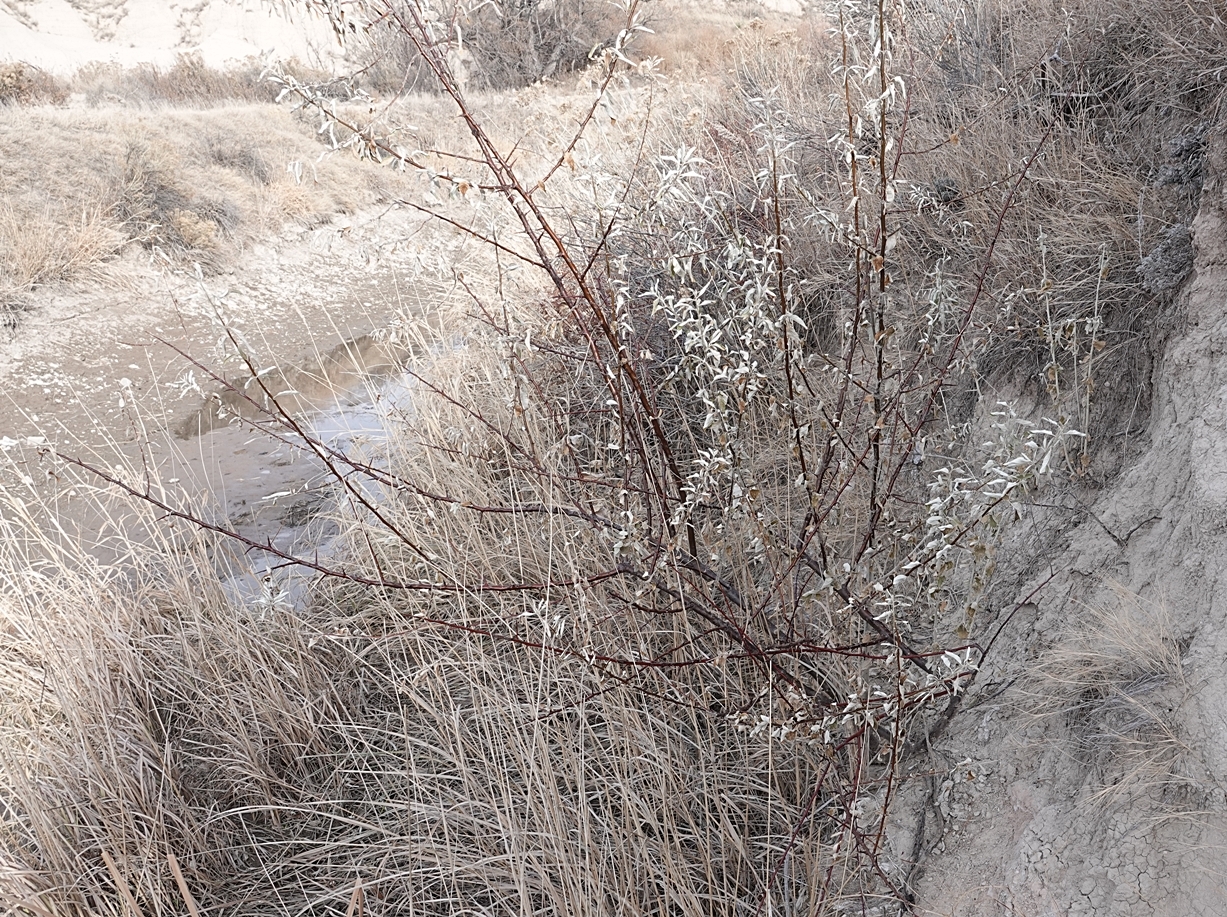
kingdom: Plantae
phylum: Tracheophyta
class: Magnoliopsida
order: Rosales
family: Elaeagnaceae
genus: Elaeagnus
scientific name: Elaeagnus angustifolia
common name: Russian olive
